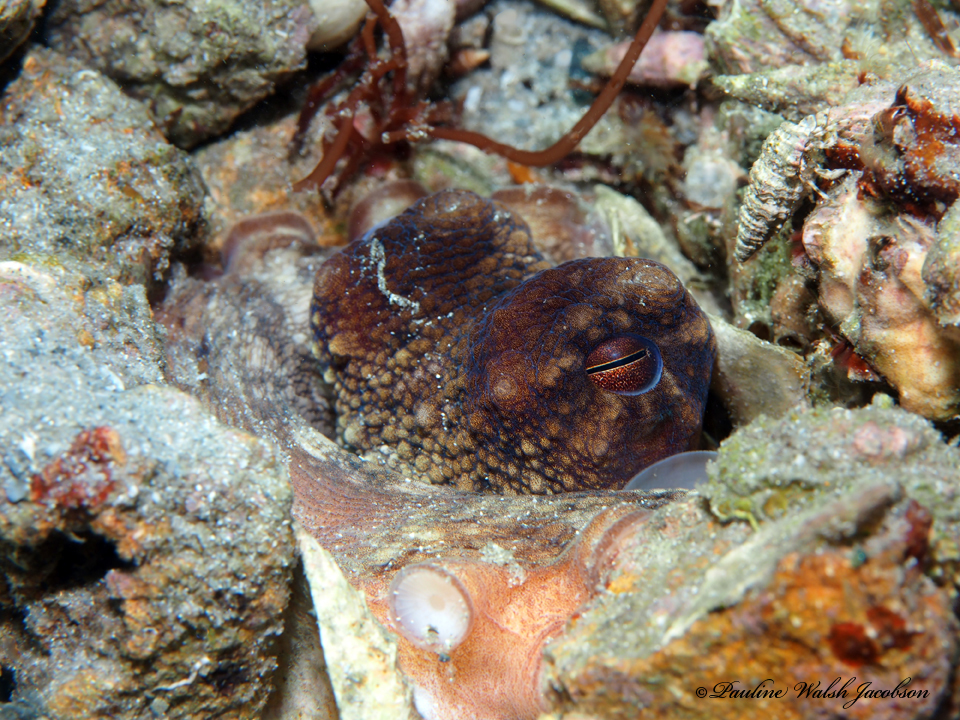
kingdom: Animalia
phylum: Mollusca
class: Cephalopoda
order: Octopoda
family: Octopodidae
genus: Octopus
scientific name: Octopus americanus
